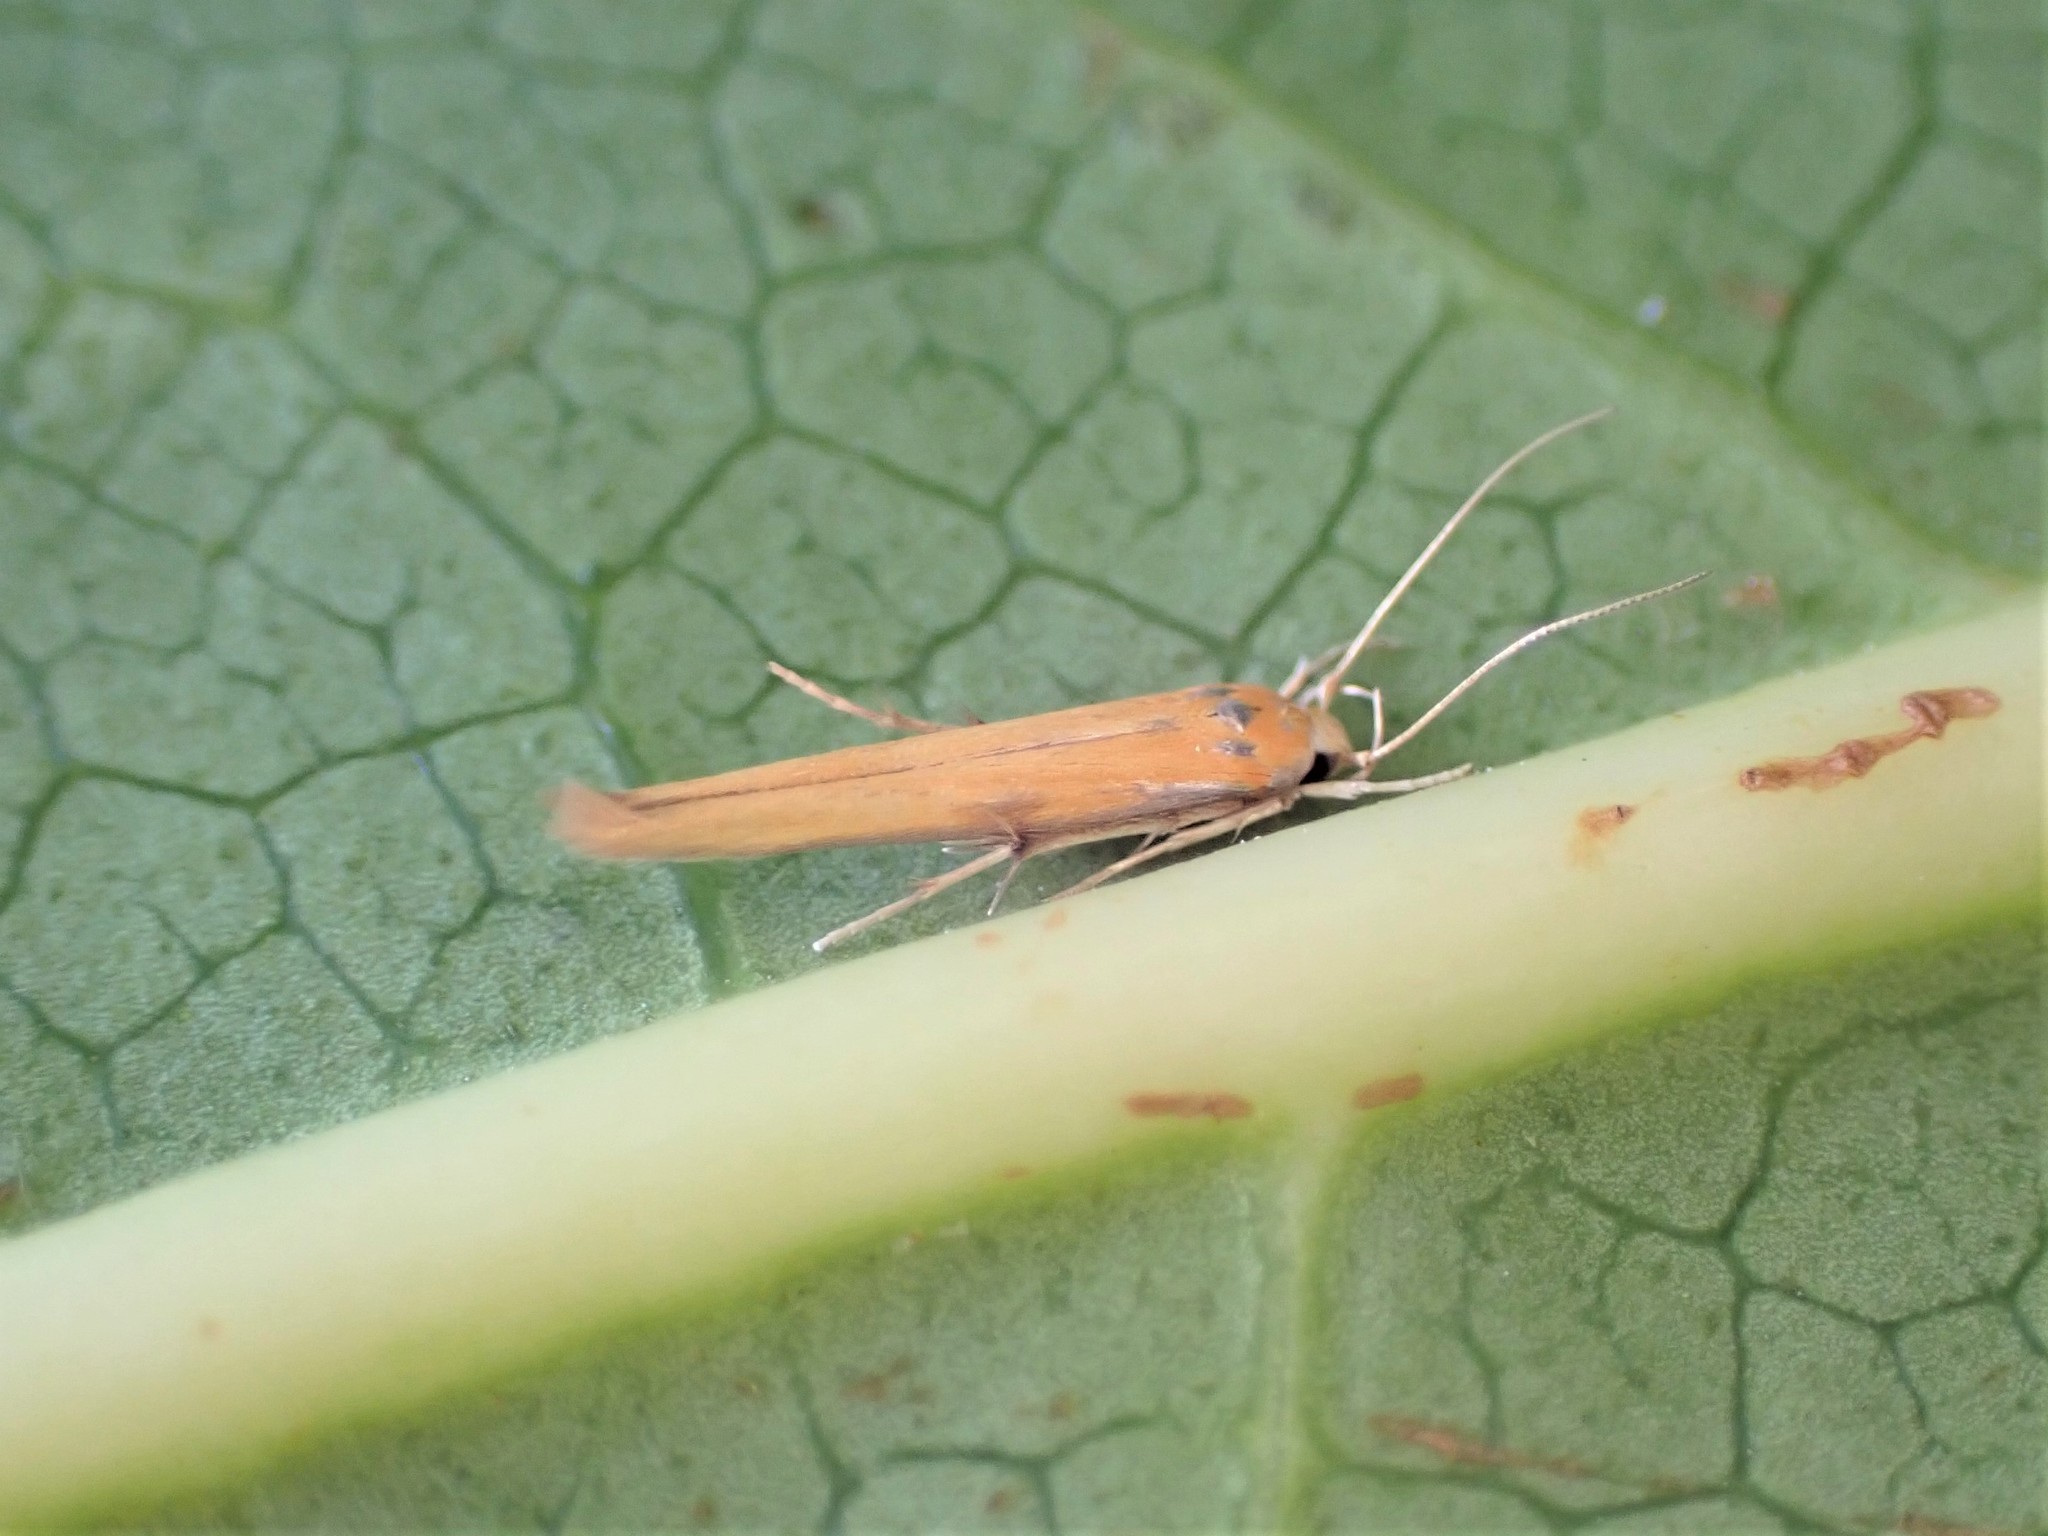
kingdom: Animalia
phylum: Arthropoda
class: Insecta
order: Lepidoptera
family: Stathmopodidae
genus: Stathmopoda
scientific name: Stathmopoda skelloni
